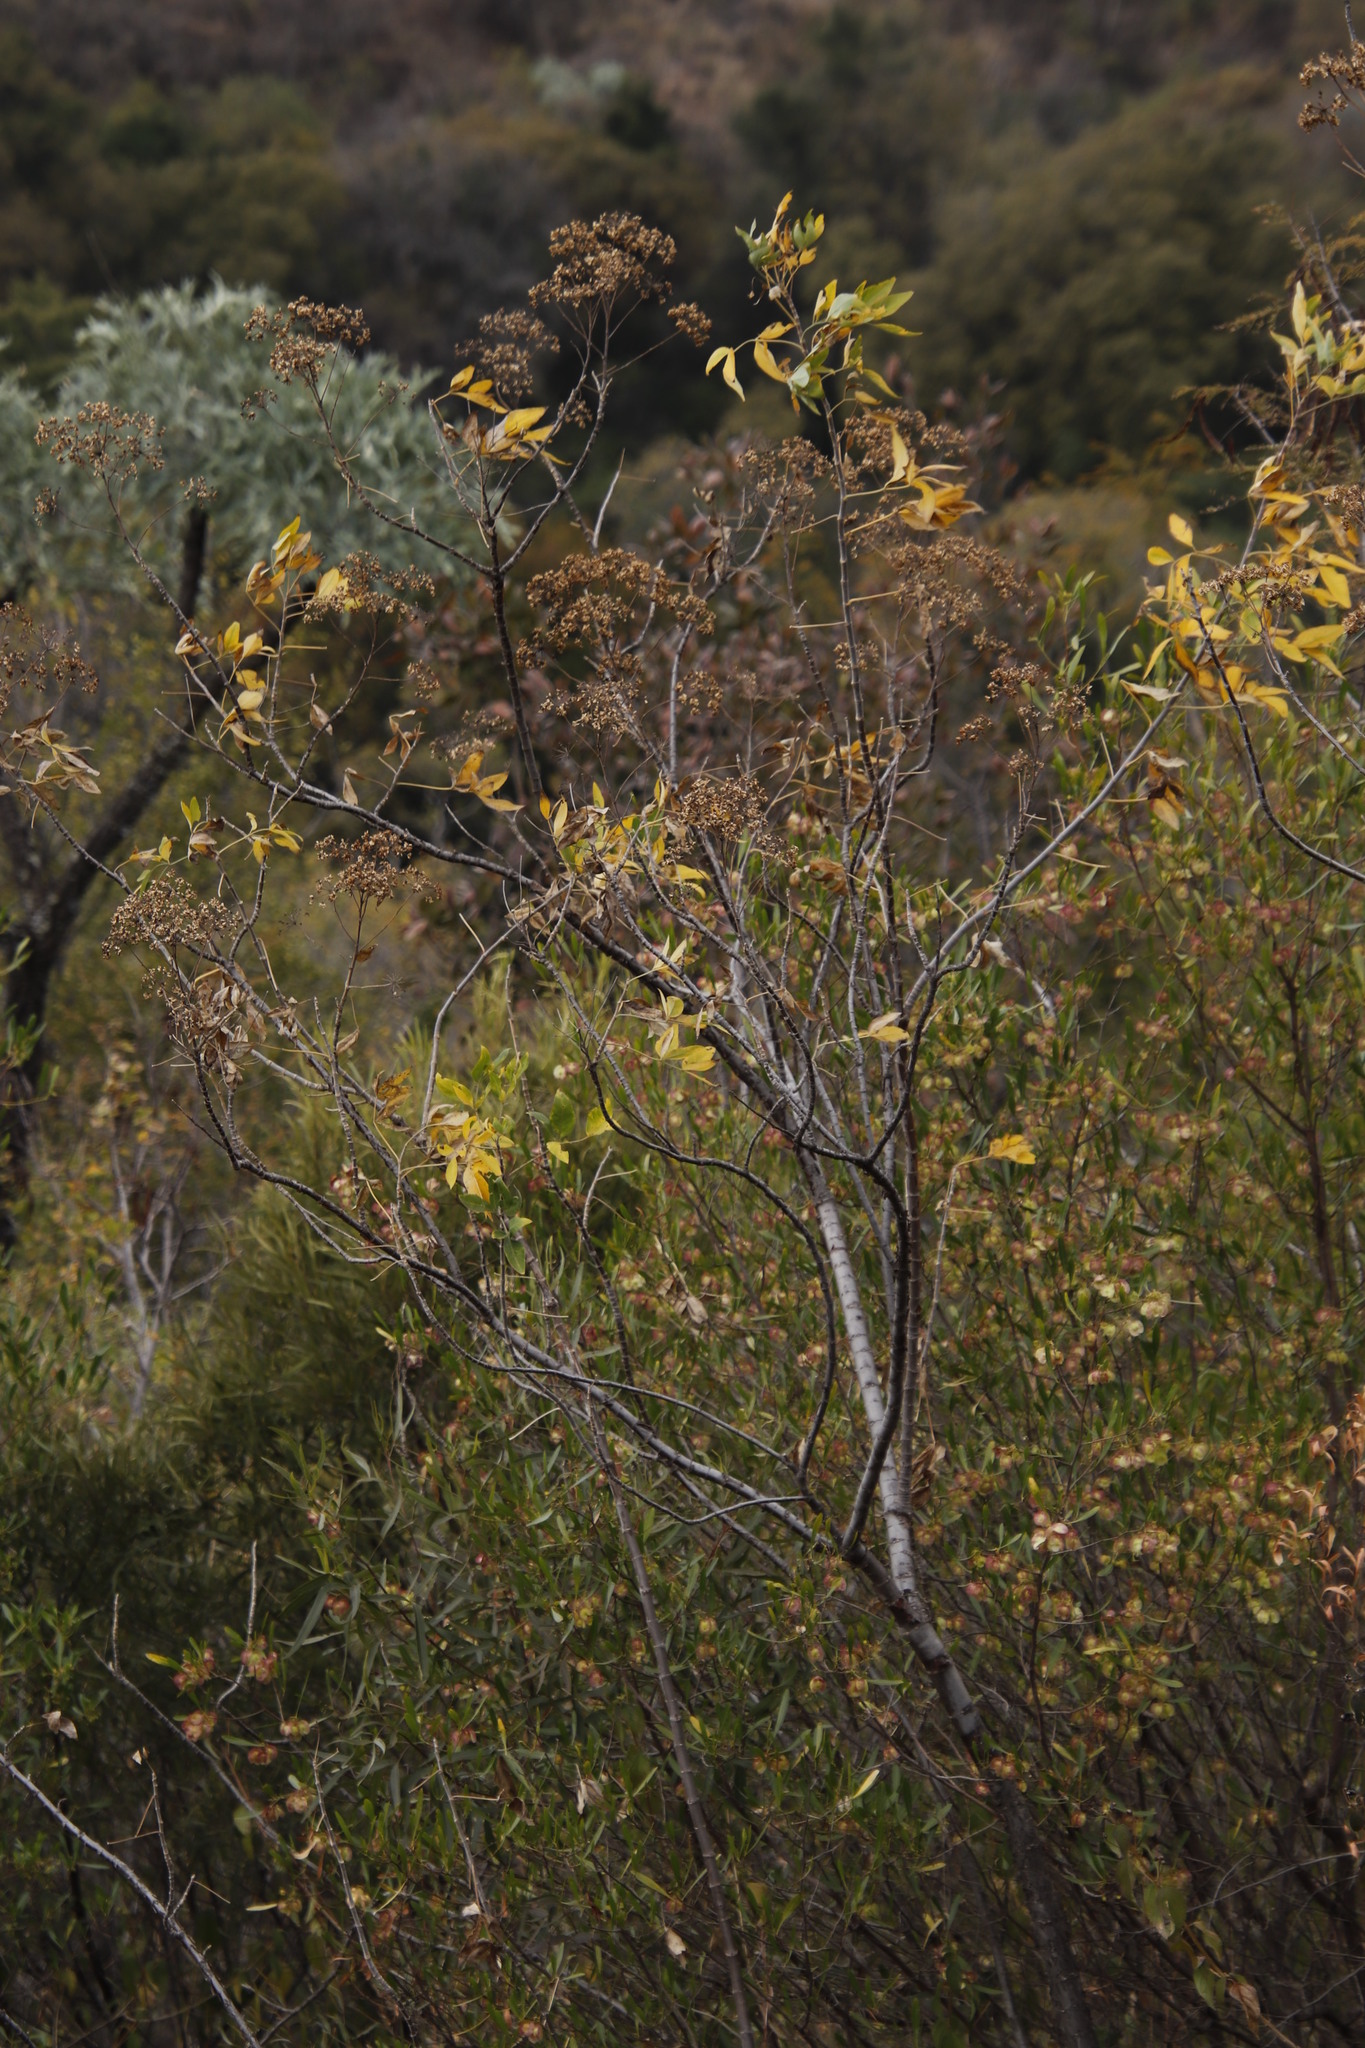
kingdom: Plantae
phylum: Tracheophyta
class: Magnoliopsida
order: Apiales
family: Apiaceae
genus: Heteromorpha
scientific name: Heteromorpha arborescens
